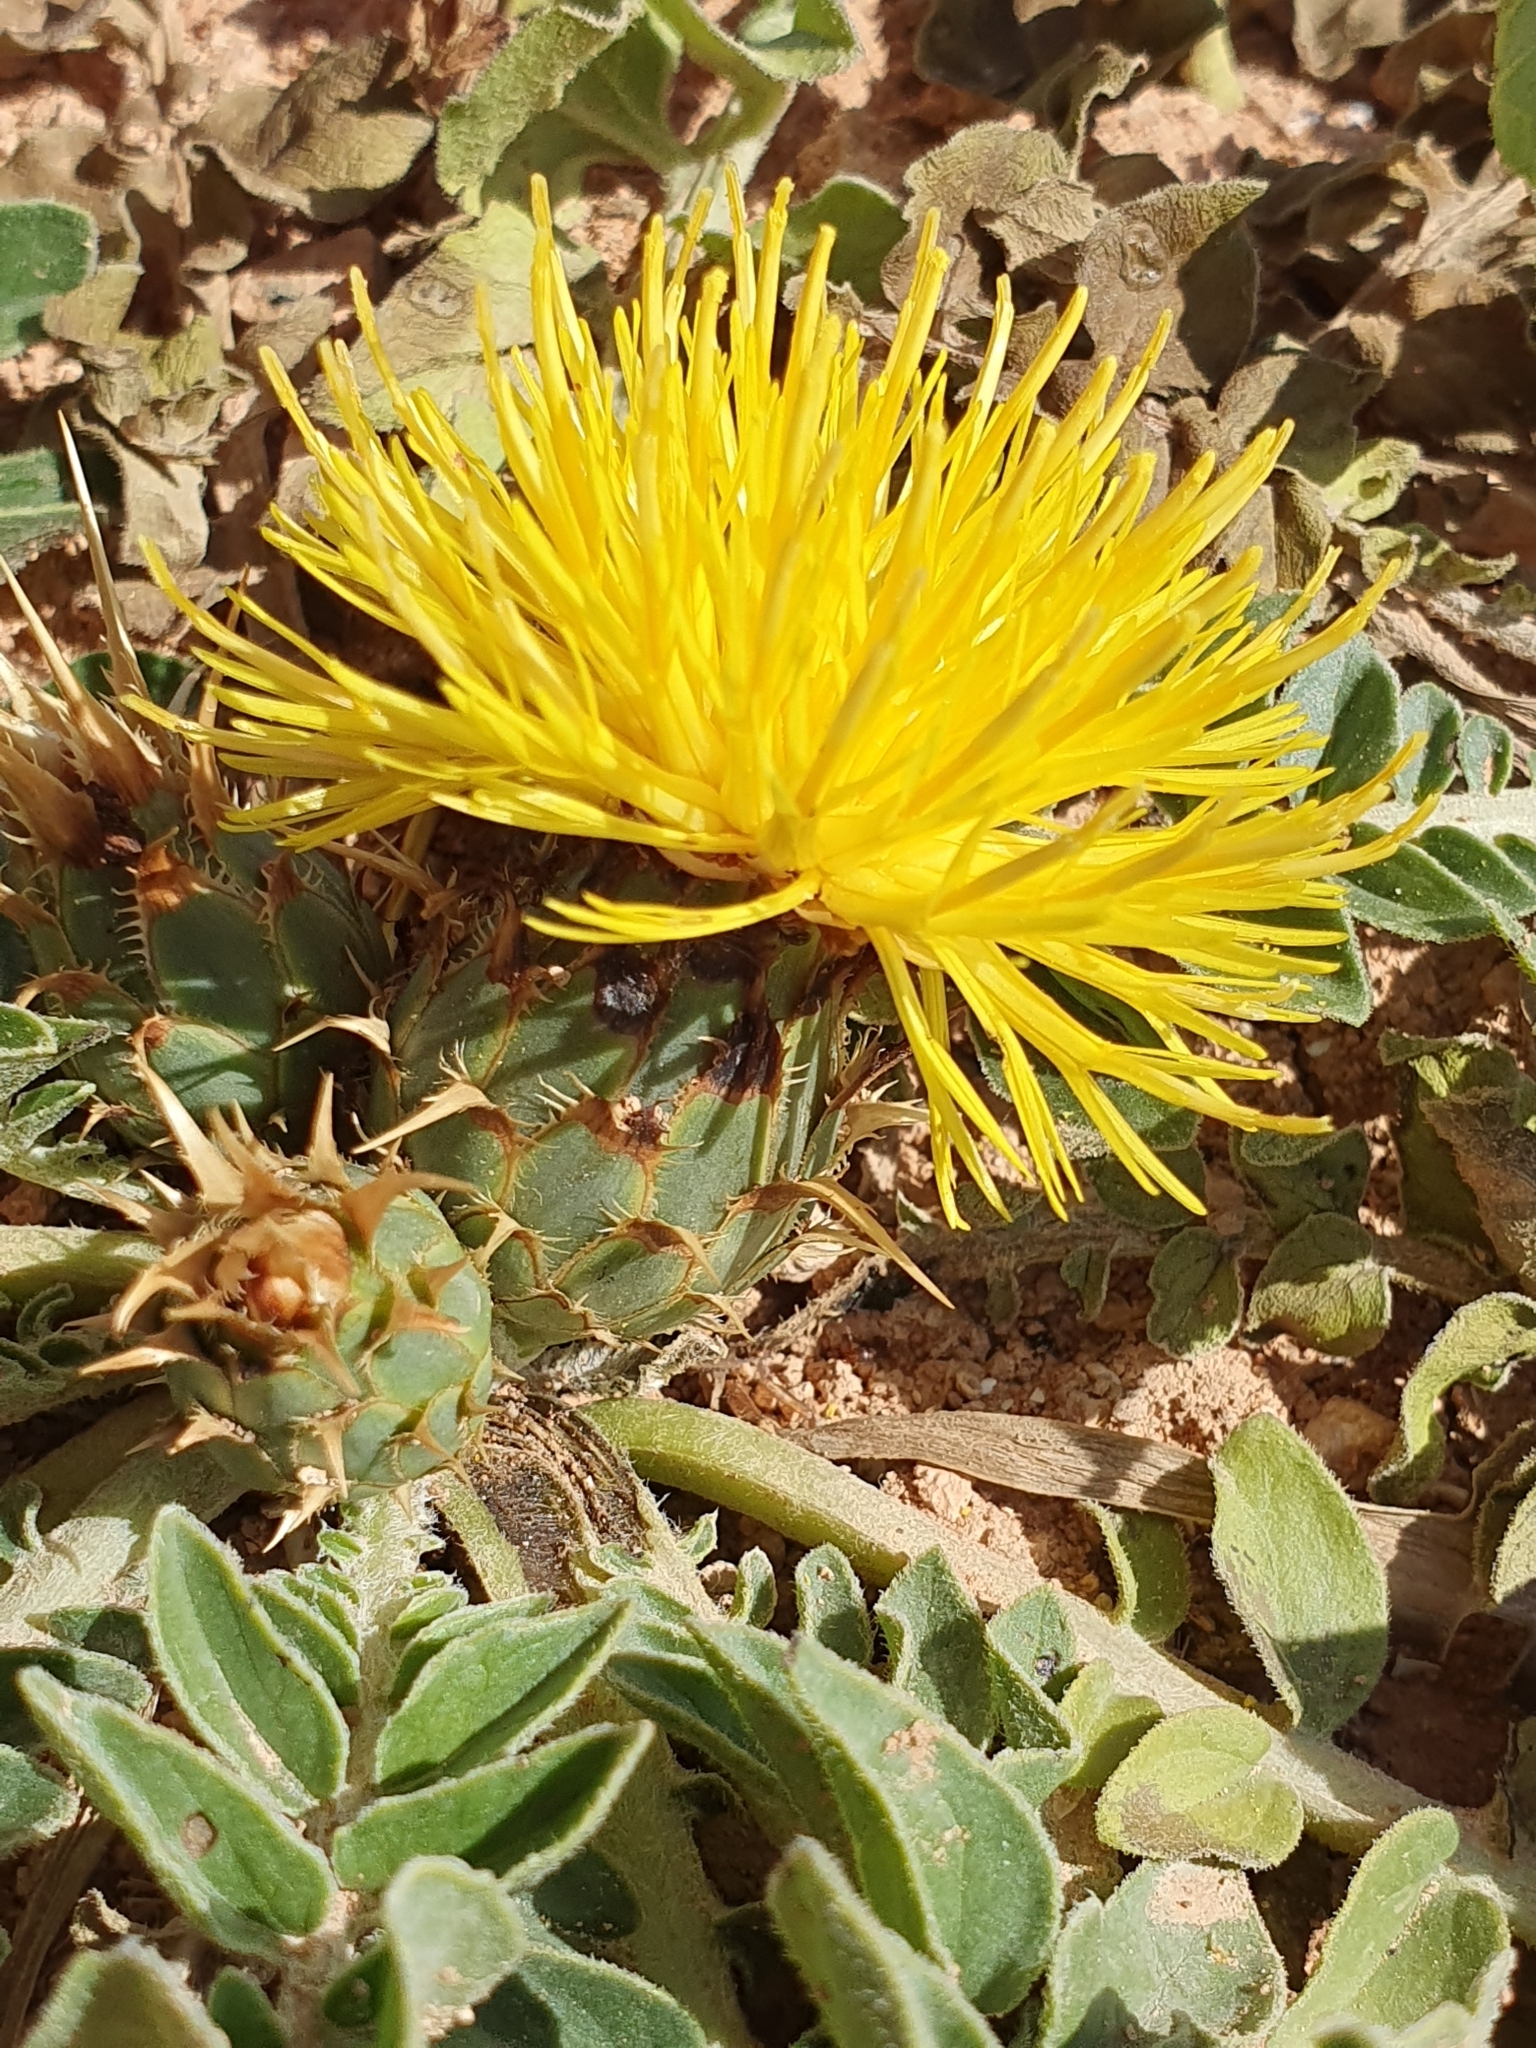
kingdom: Plantae
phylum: Tracheophyta
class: Magnoliopsida
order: Asterales
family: Asteraceae
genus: Centaurea
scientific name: Centaurea acaulis
